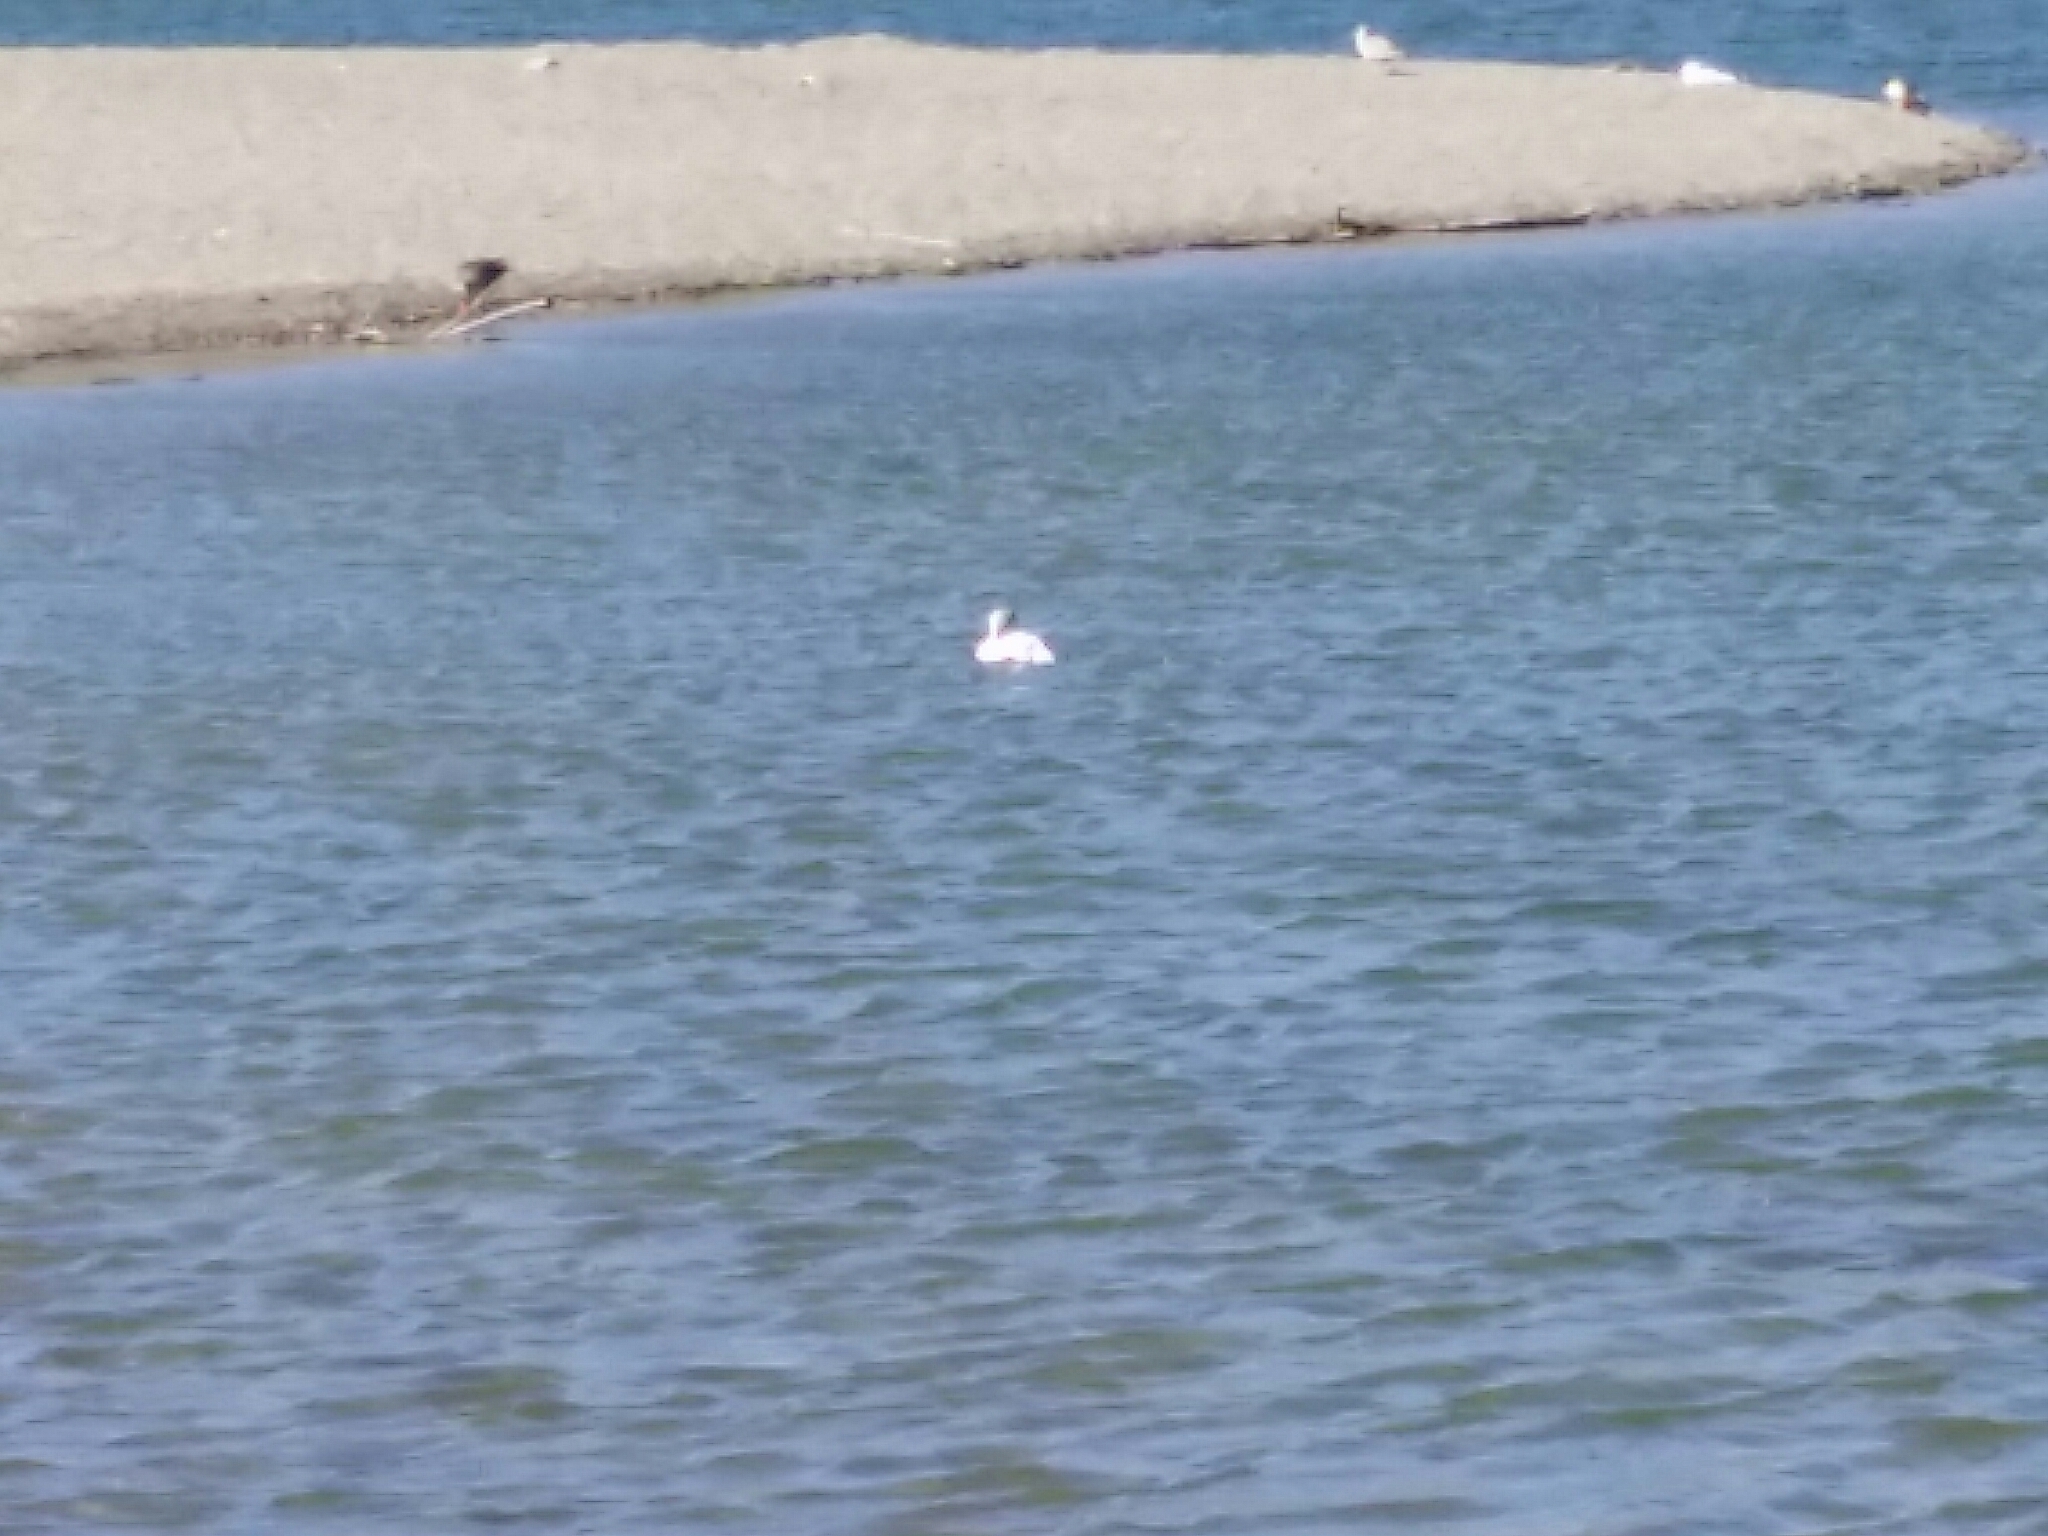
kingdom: Animalia
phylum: Chordata
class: Aves
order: Gaviiformes
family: Gaviidae
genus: Gavia
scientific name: Gavia stellata
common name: Red-throated loon
